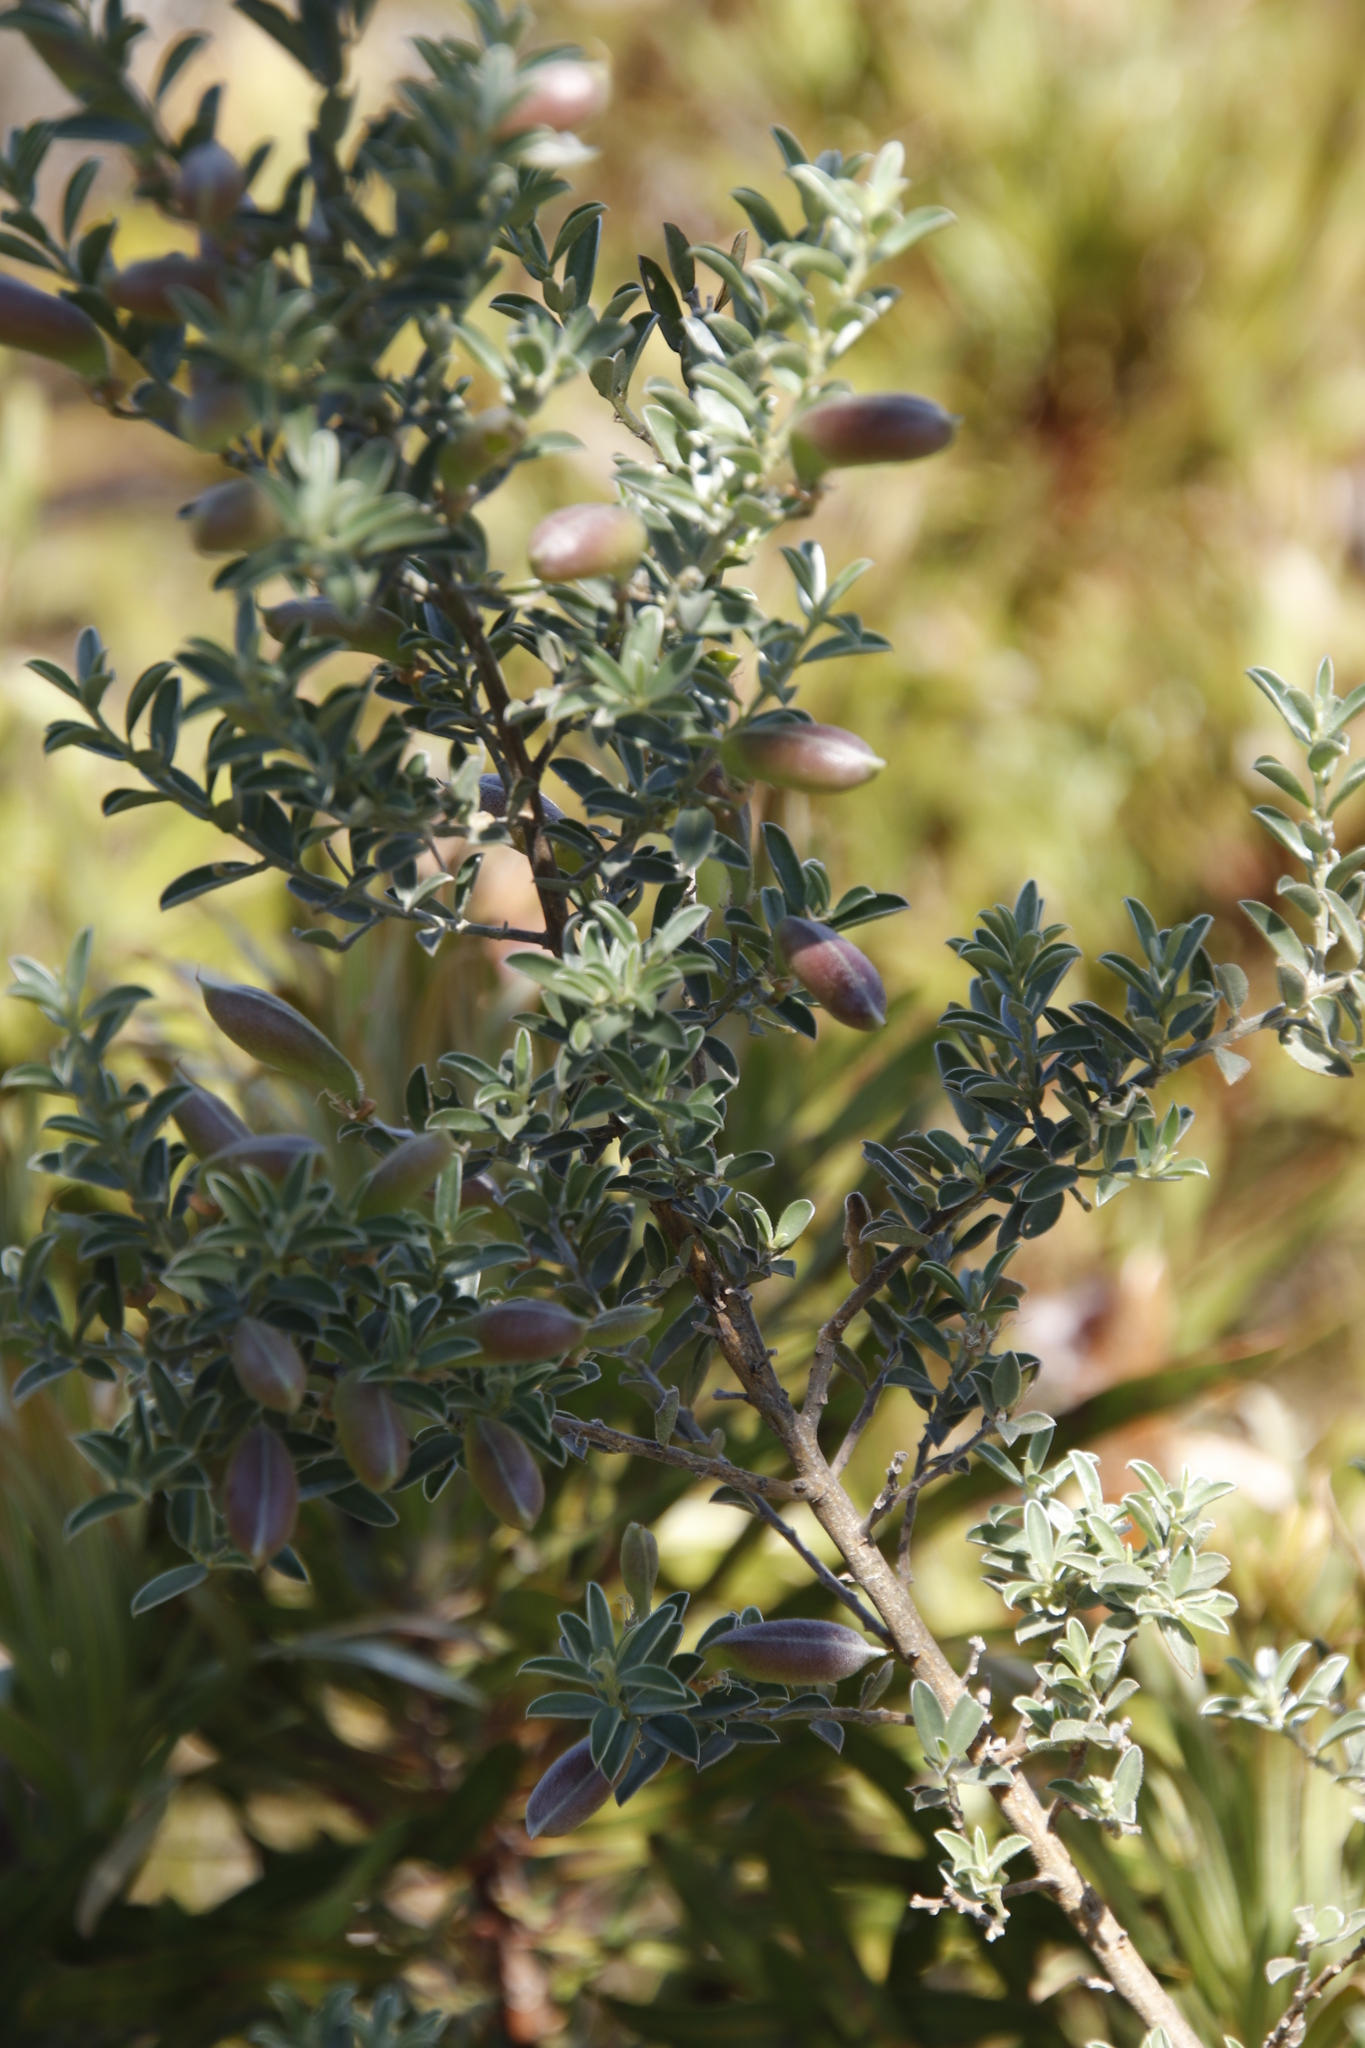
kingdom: Plantae
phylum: Tracheophyta
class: Magnoliopsida
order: Fabales
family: Fabaceae
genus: Podalyria
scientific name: Podalyria myrtillifolia
